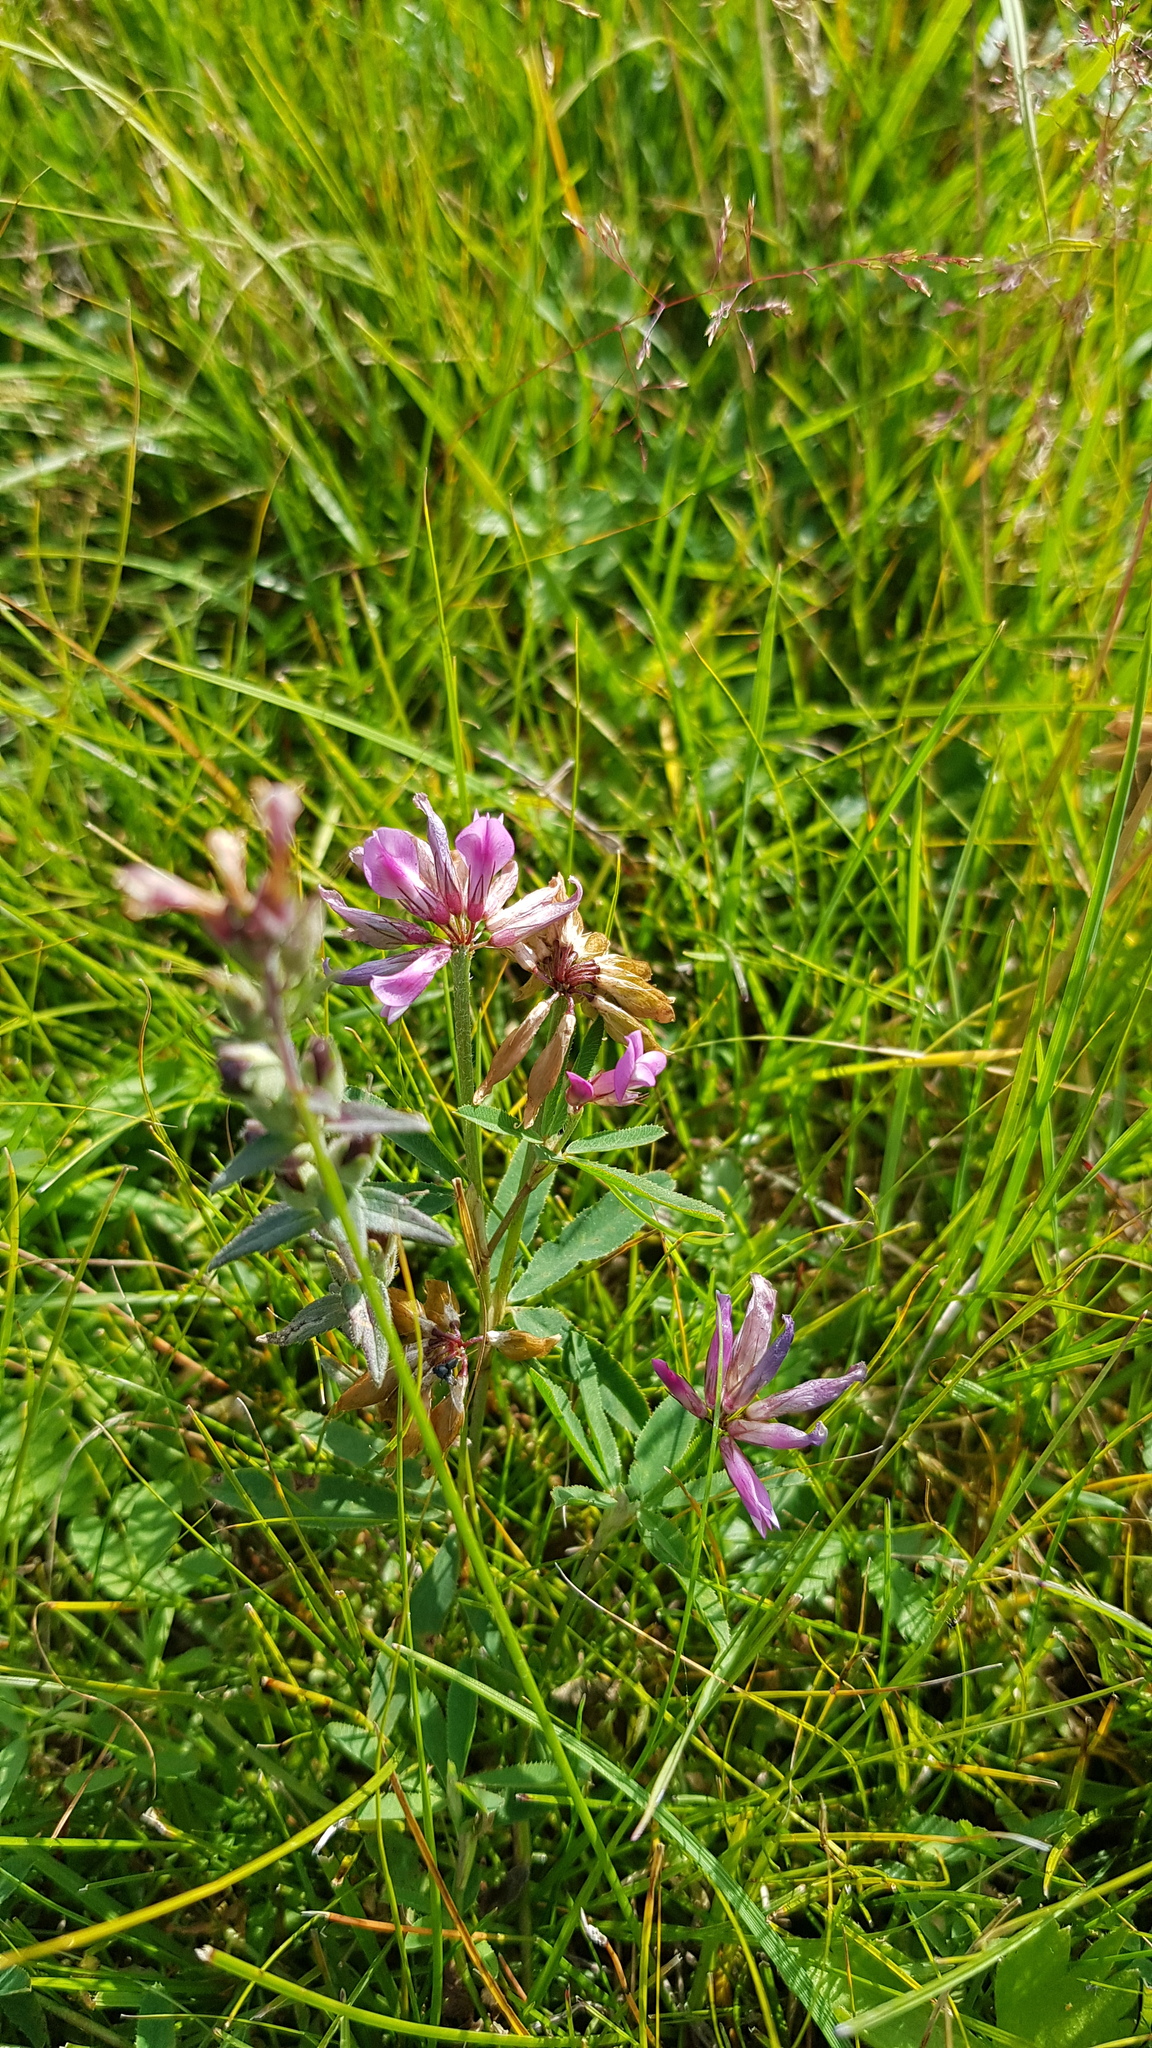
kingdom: Plantae
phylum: Tracheophyta
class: Magnoliopsida
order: Fabales
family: Fabaceae
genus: Trifolium
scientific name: Trifolium lupinaster
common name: Lupine clover
